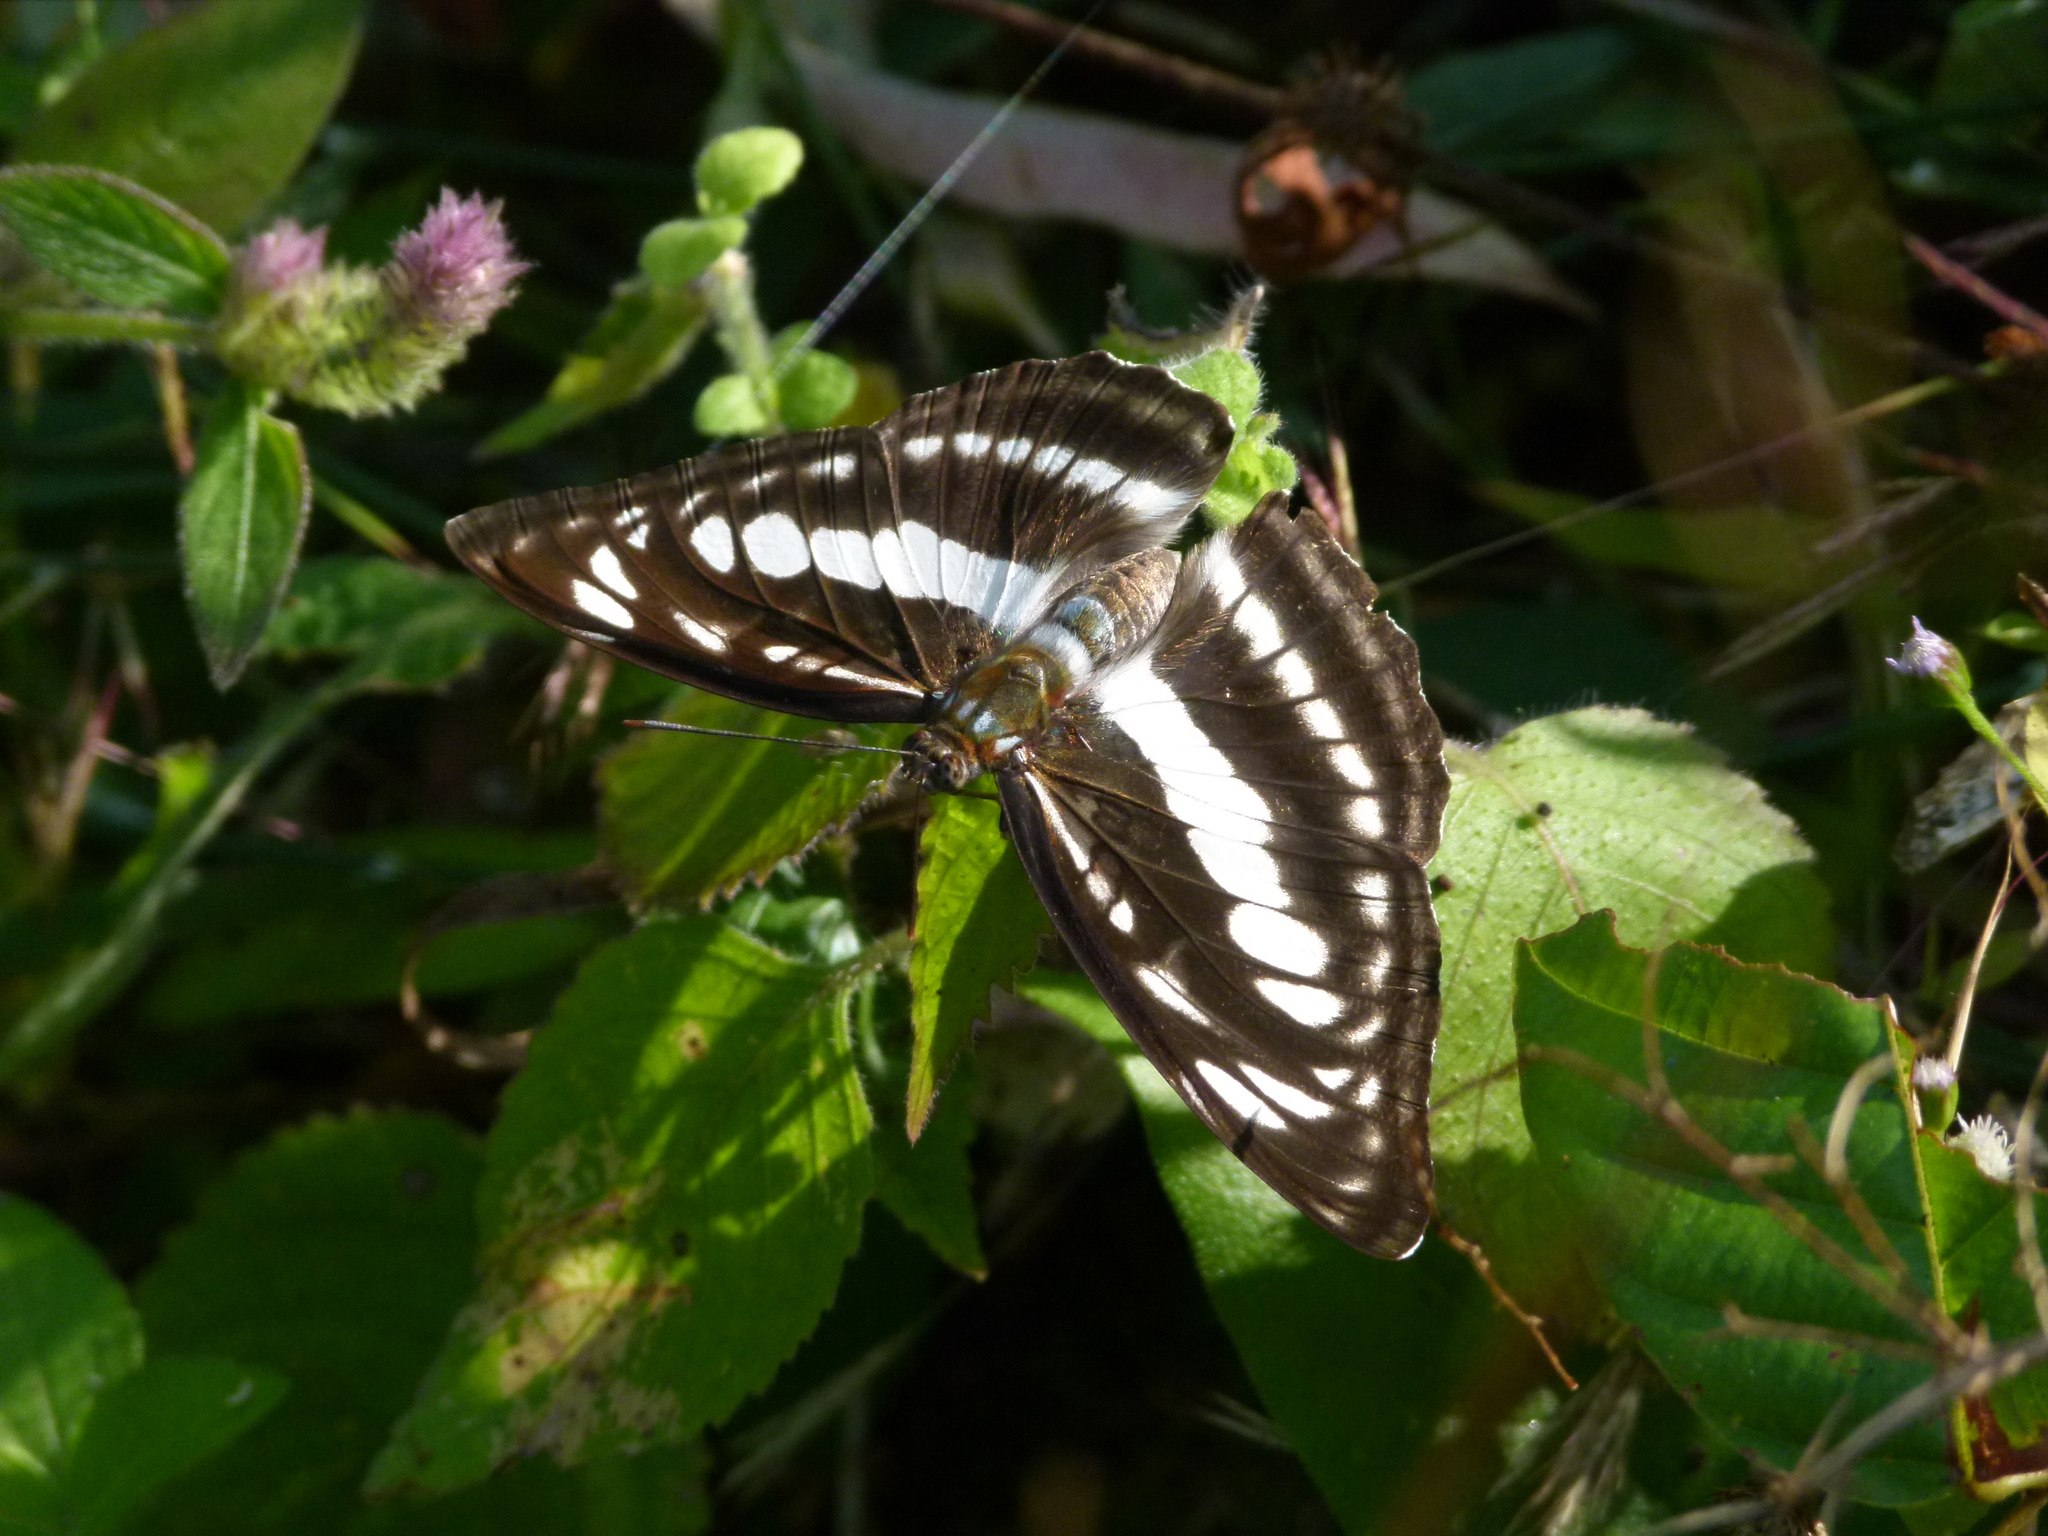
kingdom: Animalia
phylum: Arthropoda
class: Insecta
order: Lepidoptera
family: Nymphalidae
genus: Parathyma
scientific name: Parathyma perius
